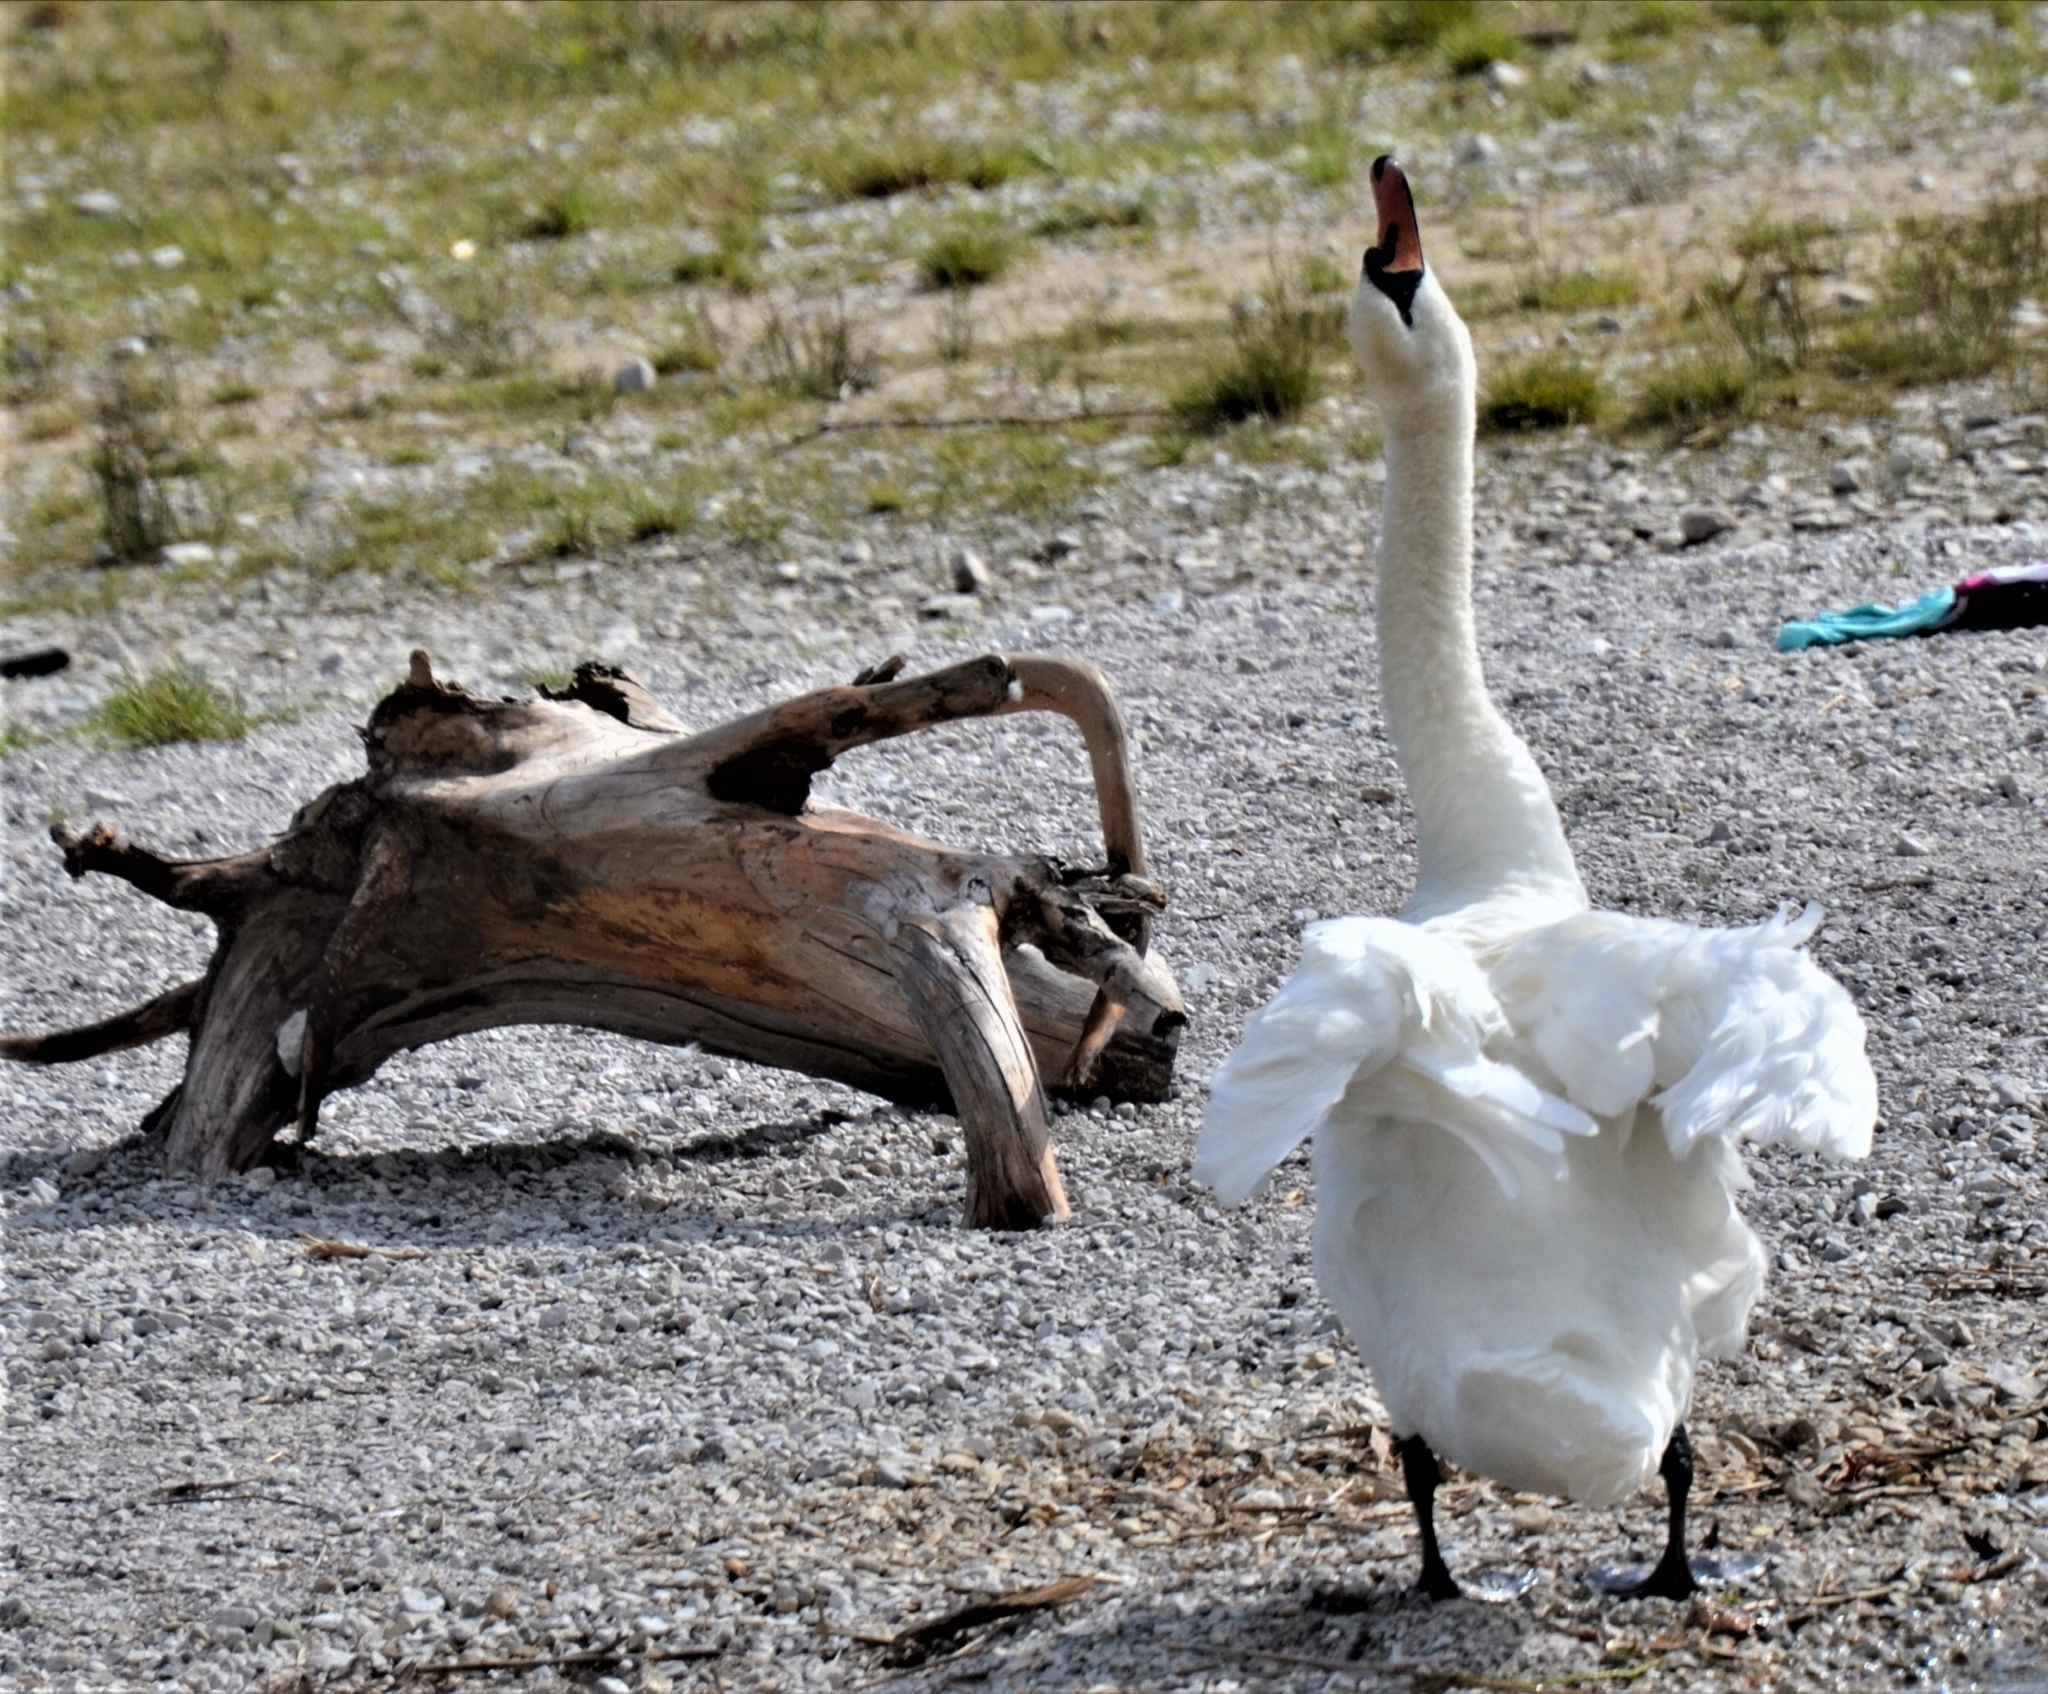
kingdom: Animalia
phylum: Chordata
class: Aves
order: Anseriformes
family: Anatidae
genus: Cygnus
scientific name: Cygnus olor
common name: Mute swan
